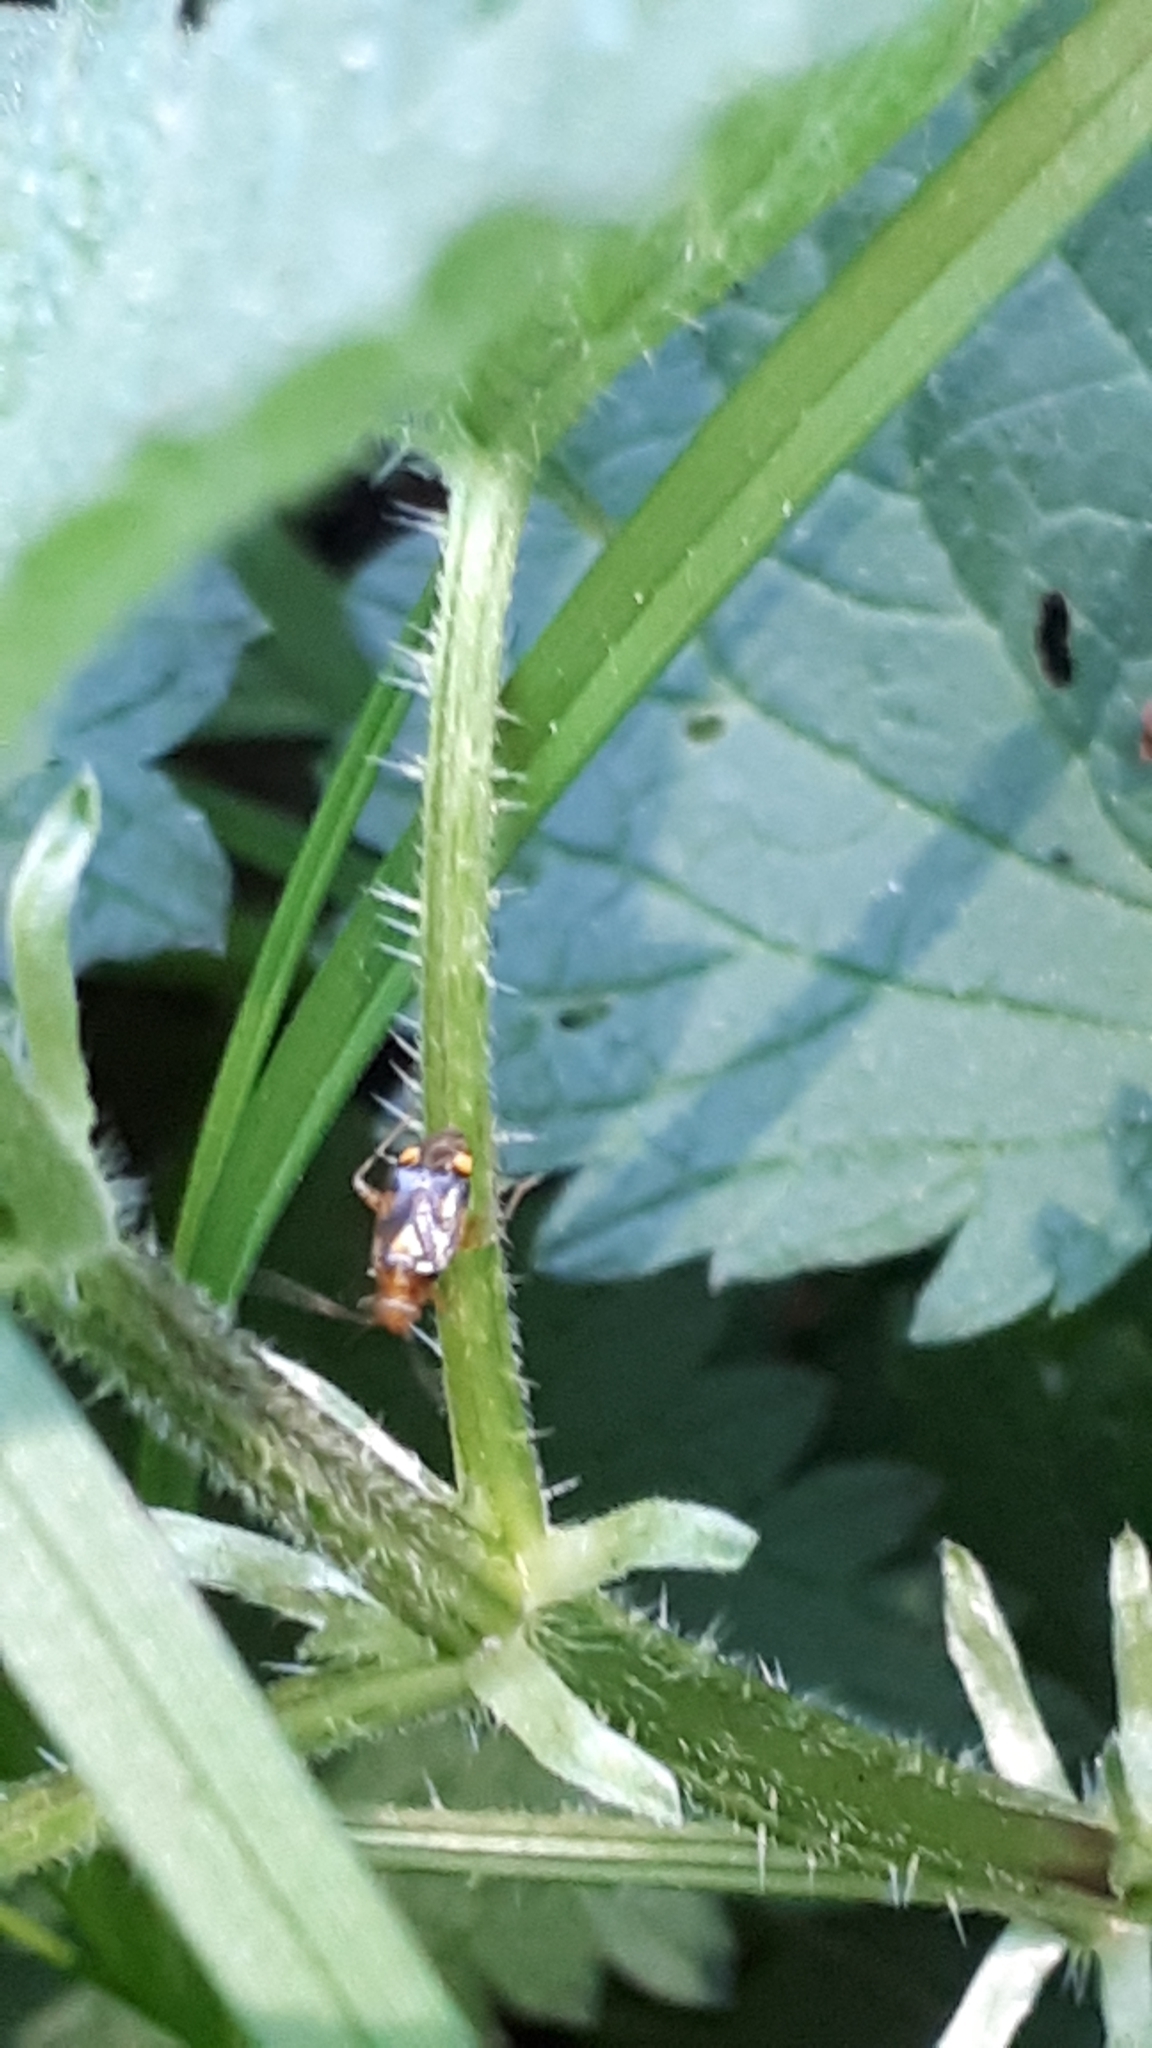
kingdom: Animalia
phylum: Arthropoda
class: Insecta
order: Hemiptera
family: Miridae
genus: Liocoris
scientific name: Liocoris tripustulatus
